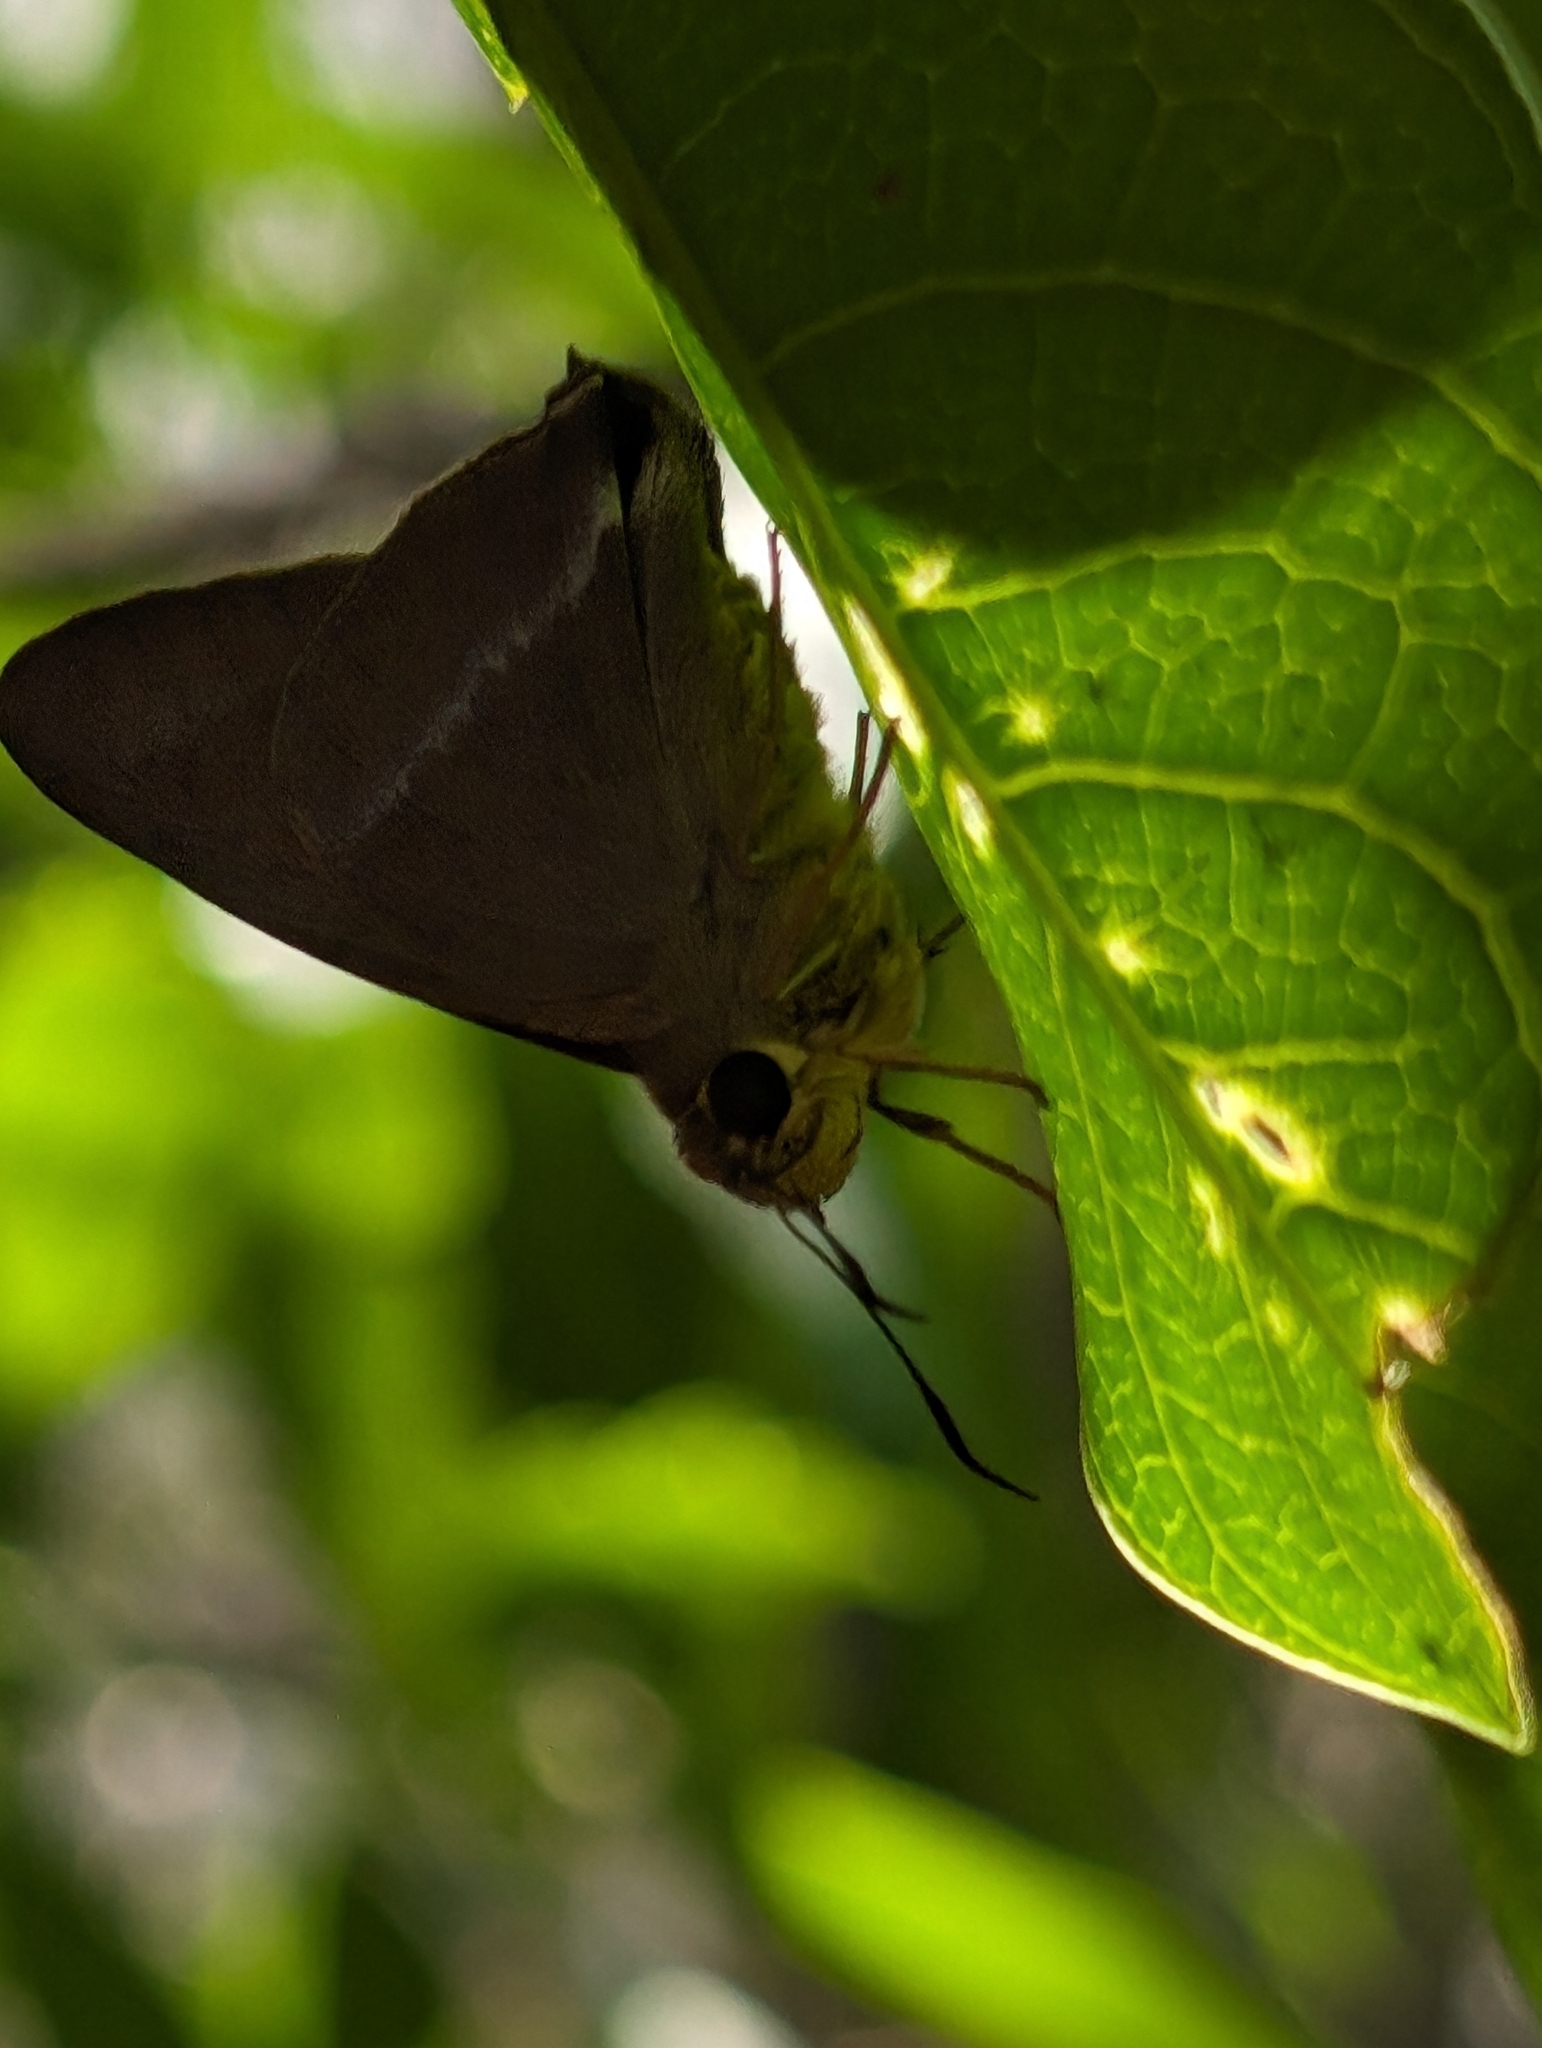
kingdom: Animalia
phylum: Arthropoda
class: Insecta
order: Lepidoptera
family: Hesperiidae
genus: Hasora
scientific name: Hasora chromus
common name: Common banded awl
